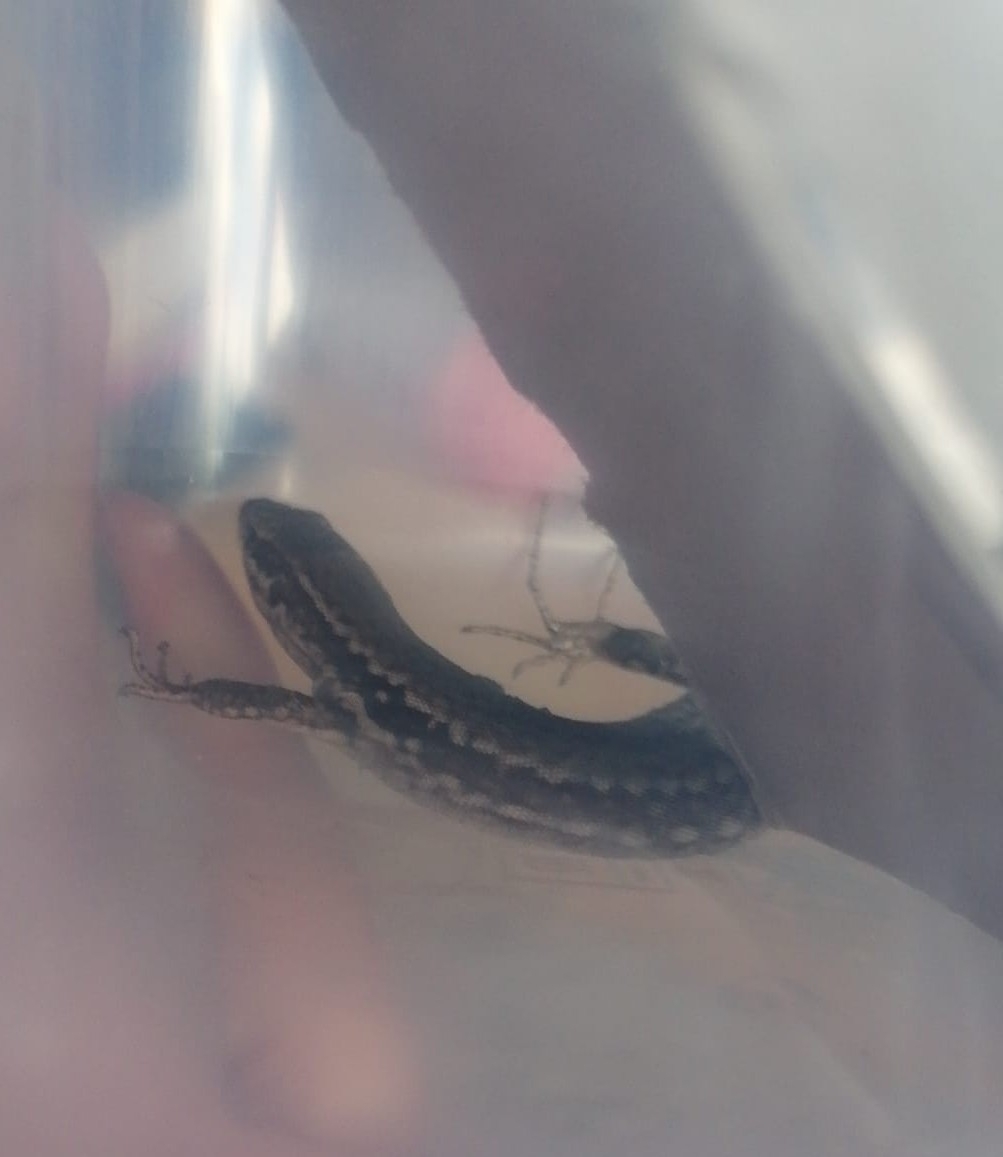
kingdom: Animalia
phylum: Chordata
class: Squamata
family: Lacertidae
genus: Podarcis
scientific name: Podarcis muralis
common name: Common wall lizard
